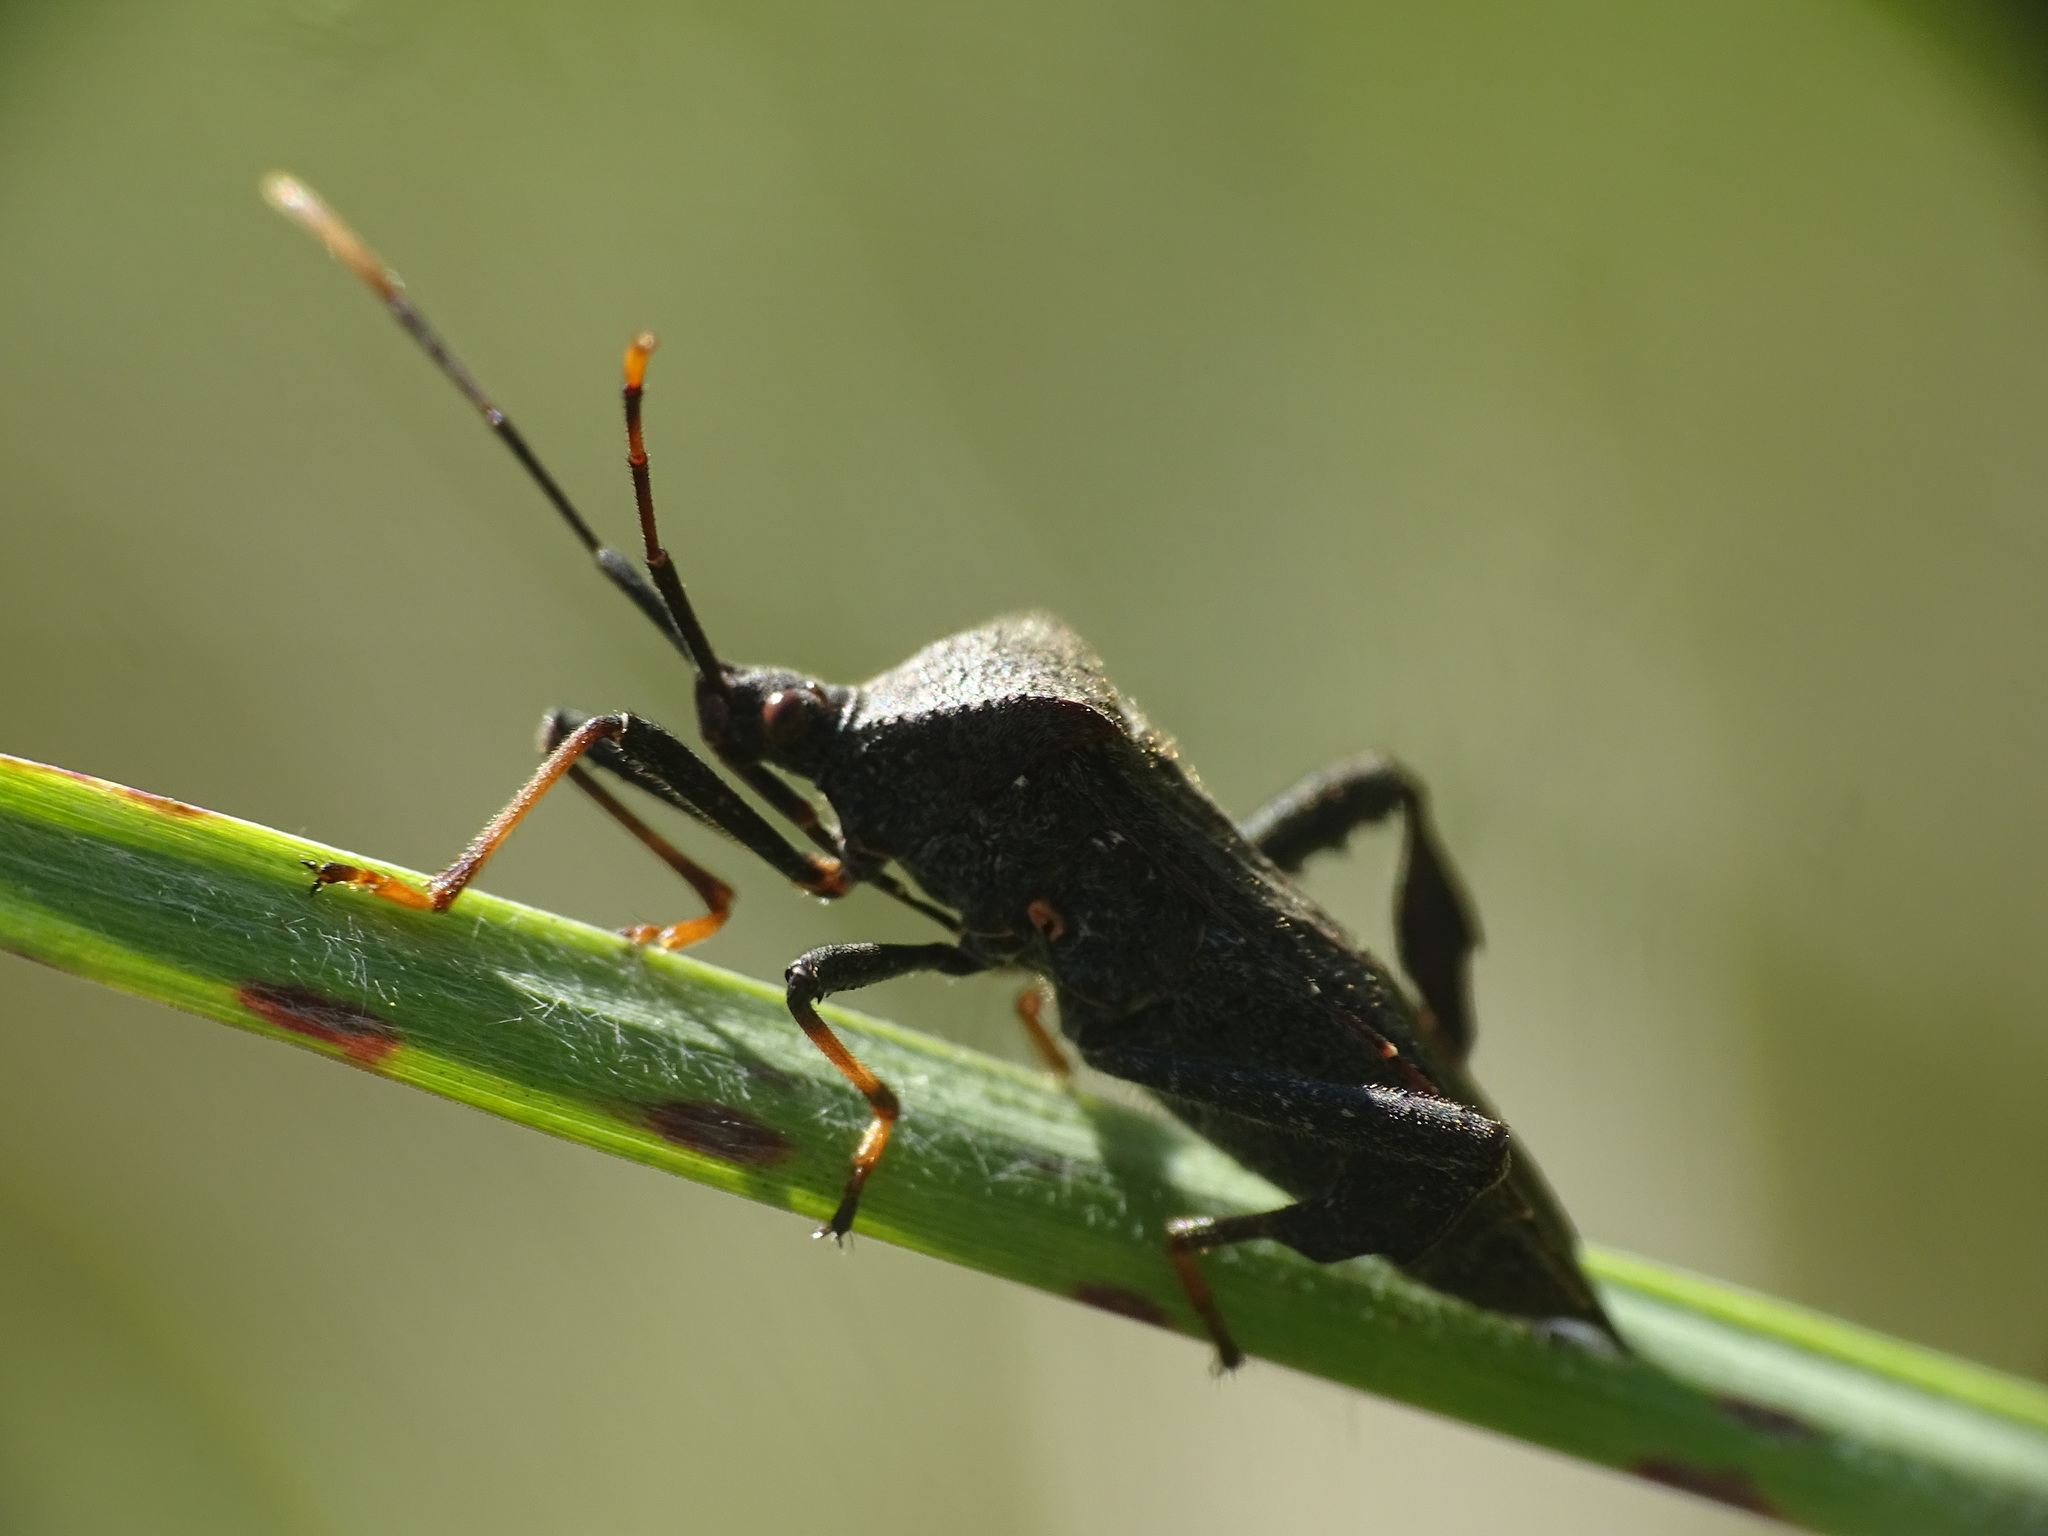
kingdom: Animalia
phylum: Arthropoda
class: Insecta
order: Hemiptera
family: Coreidae
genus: Acanthocephala
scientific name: Acanthocephala terminalis
